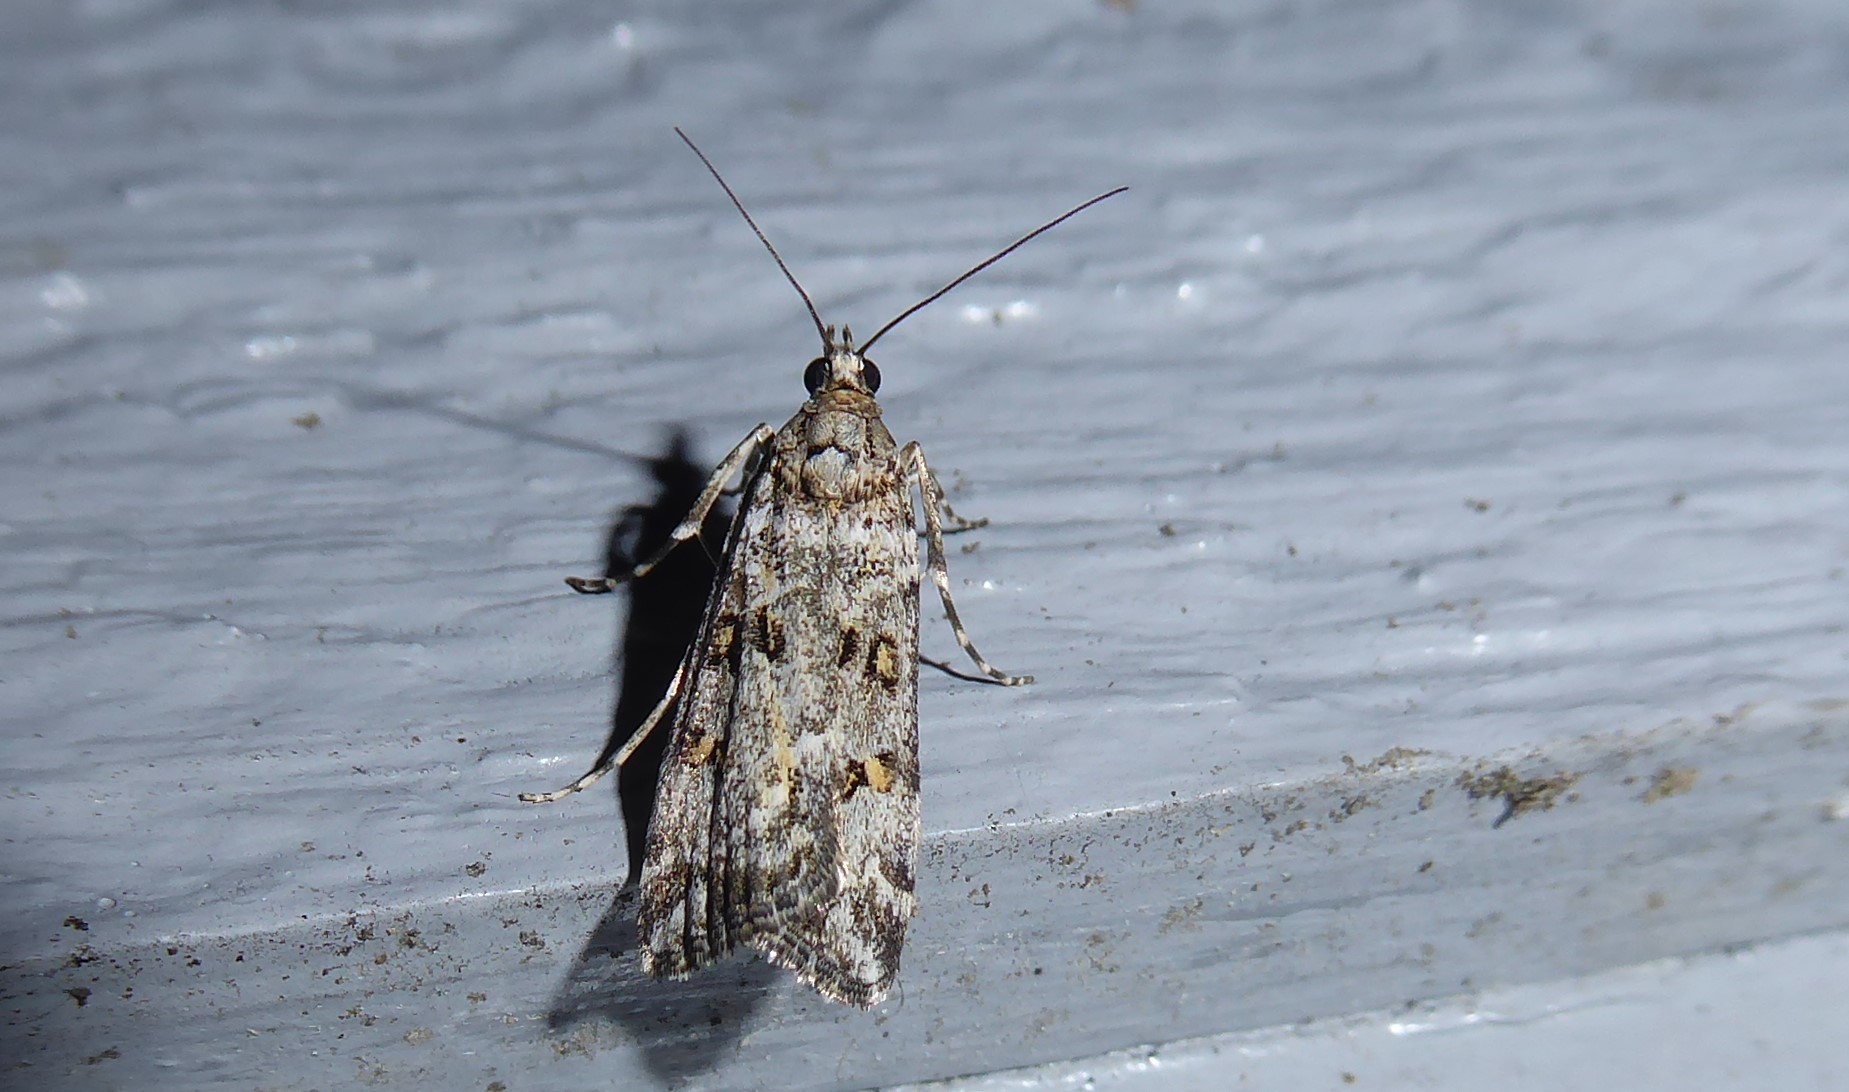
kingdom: Animalia
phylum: Arthropoda
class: Insecta
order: Lepidoptera
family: Crambidae
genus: Eudonia
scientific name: Eudonia diphtheralis
